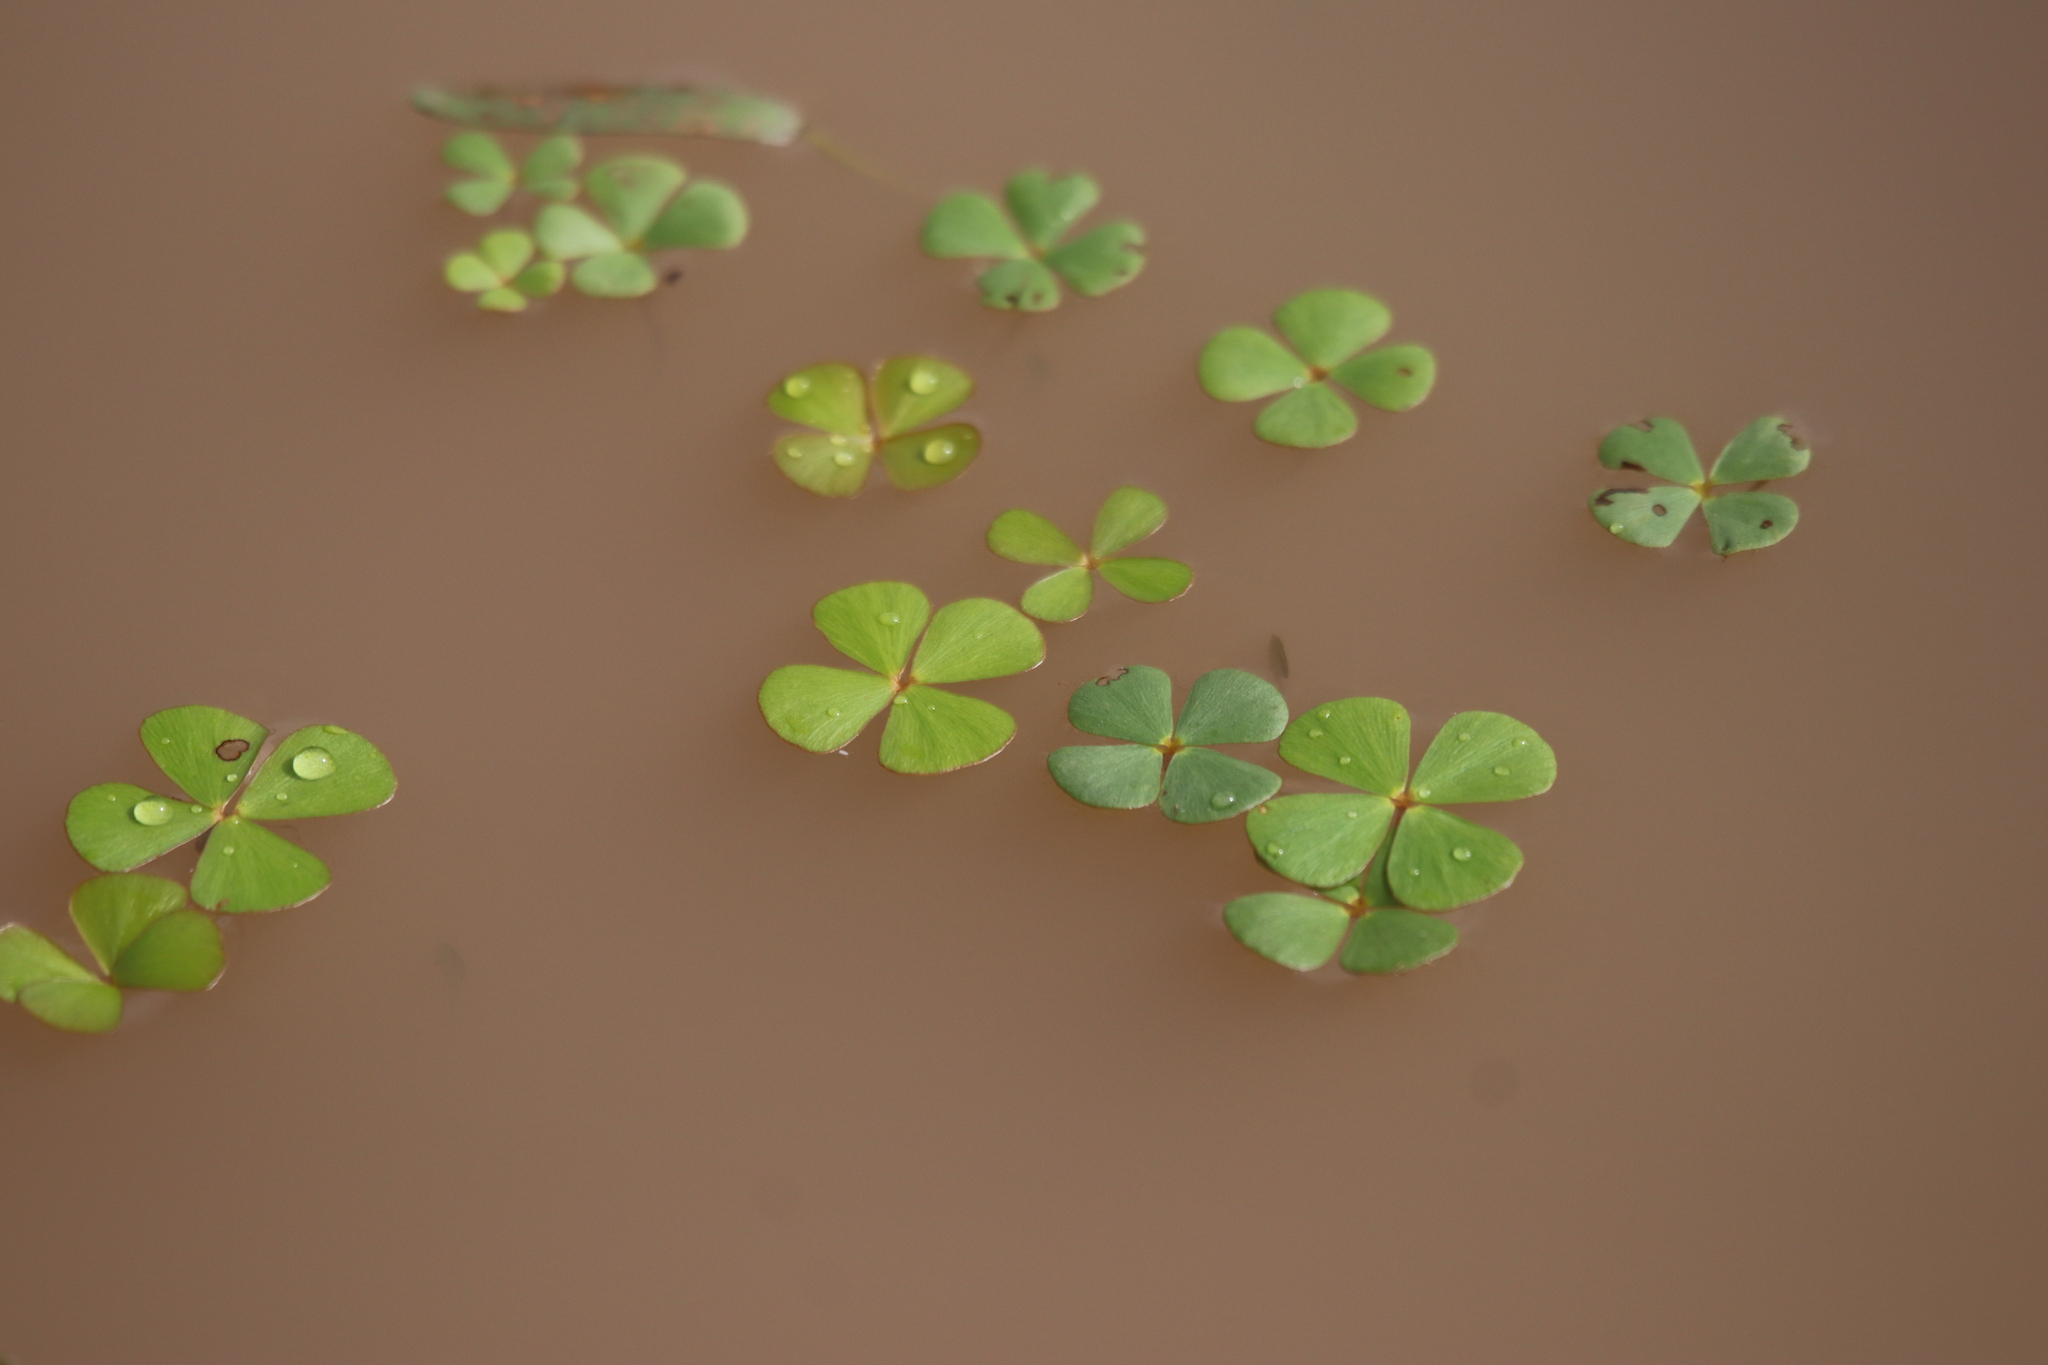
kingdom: Plantae
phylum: Tracheophyta
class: Polypodiopsida
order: Salviniales
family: Marsileaceae
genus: Marsilea
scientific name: Marsilea vestita
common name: Hooked-pepperwort
